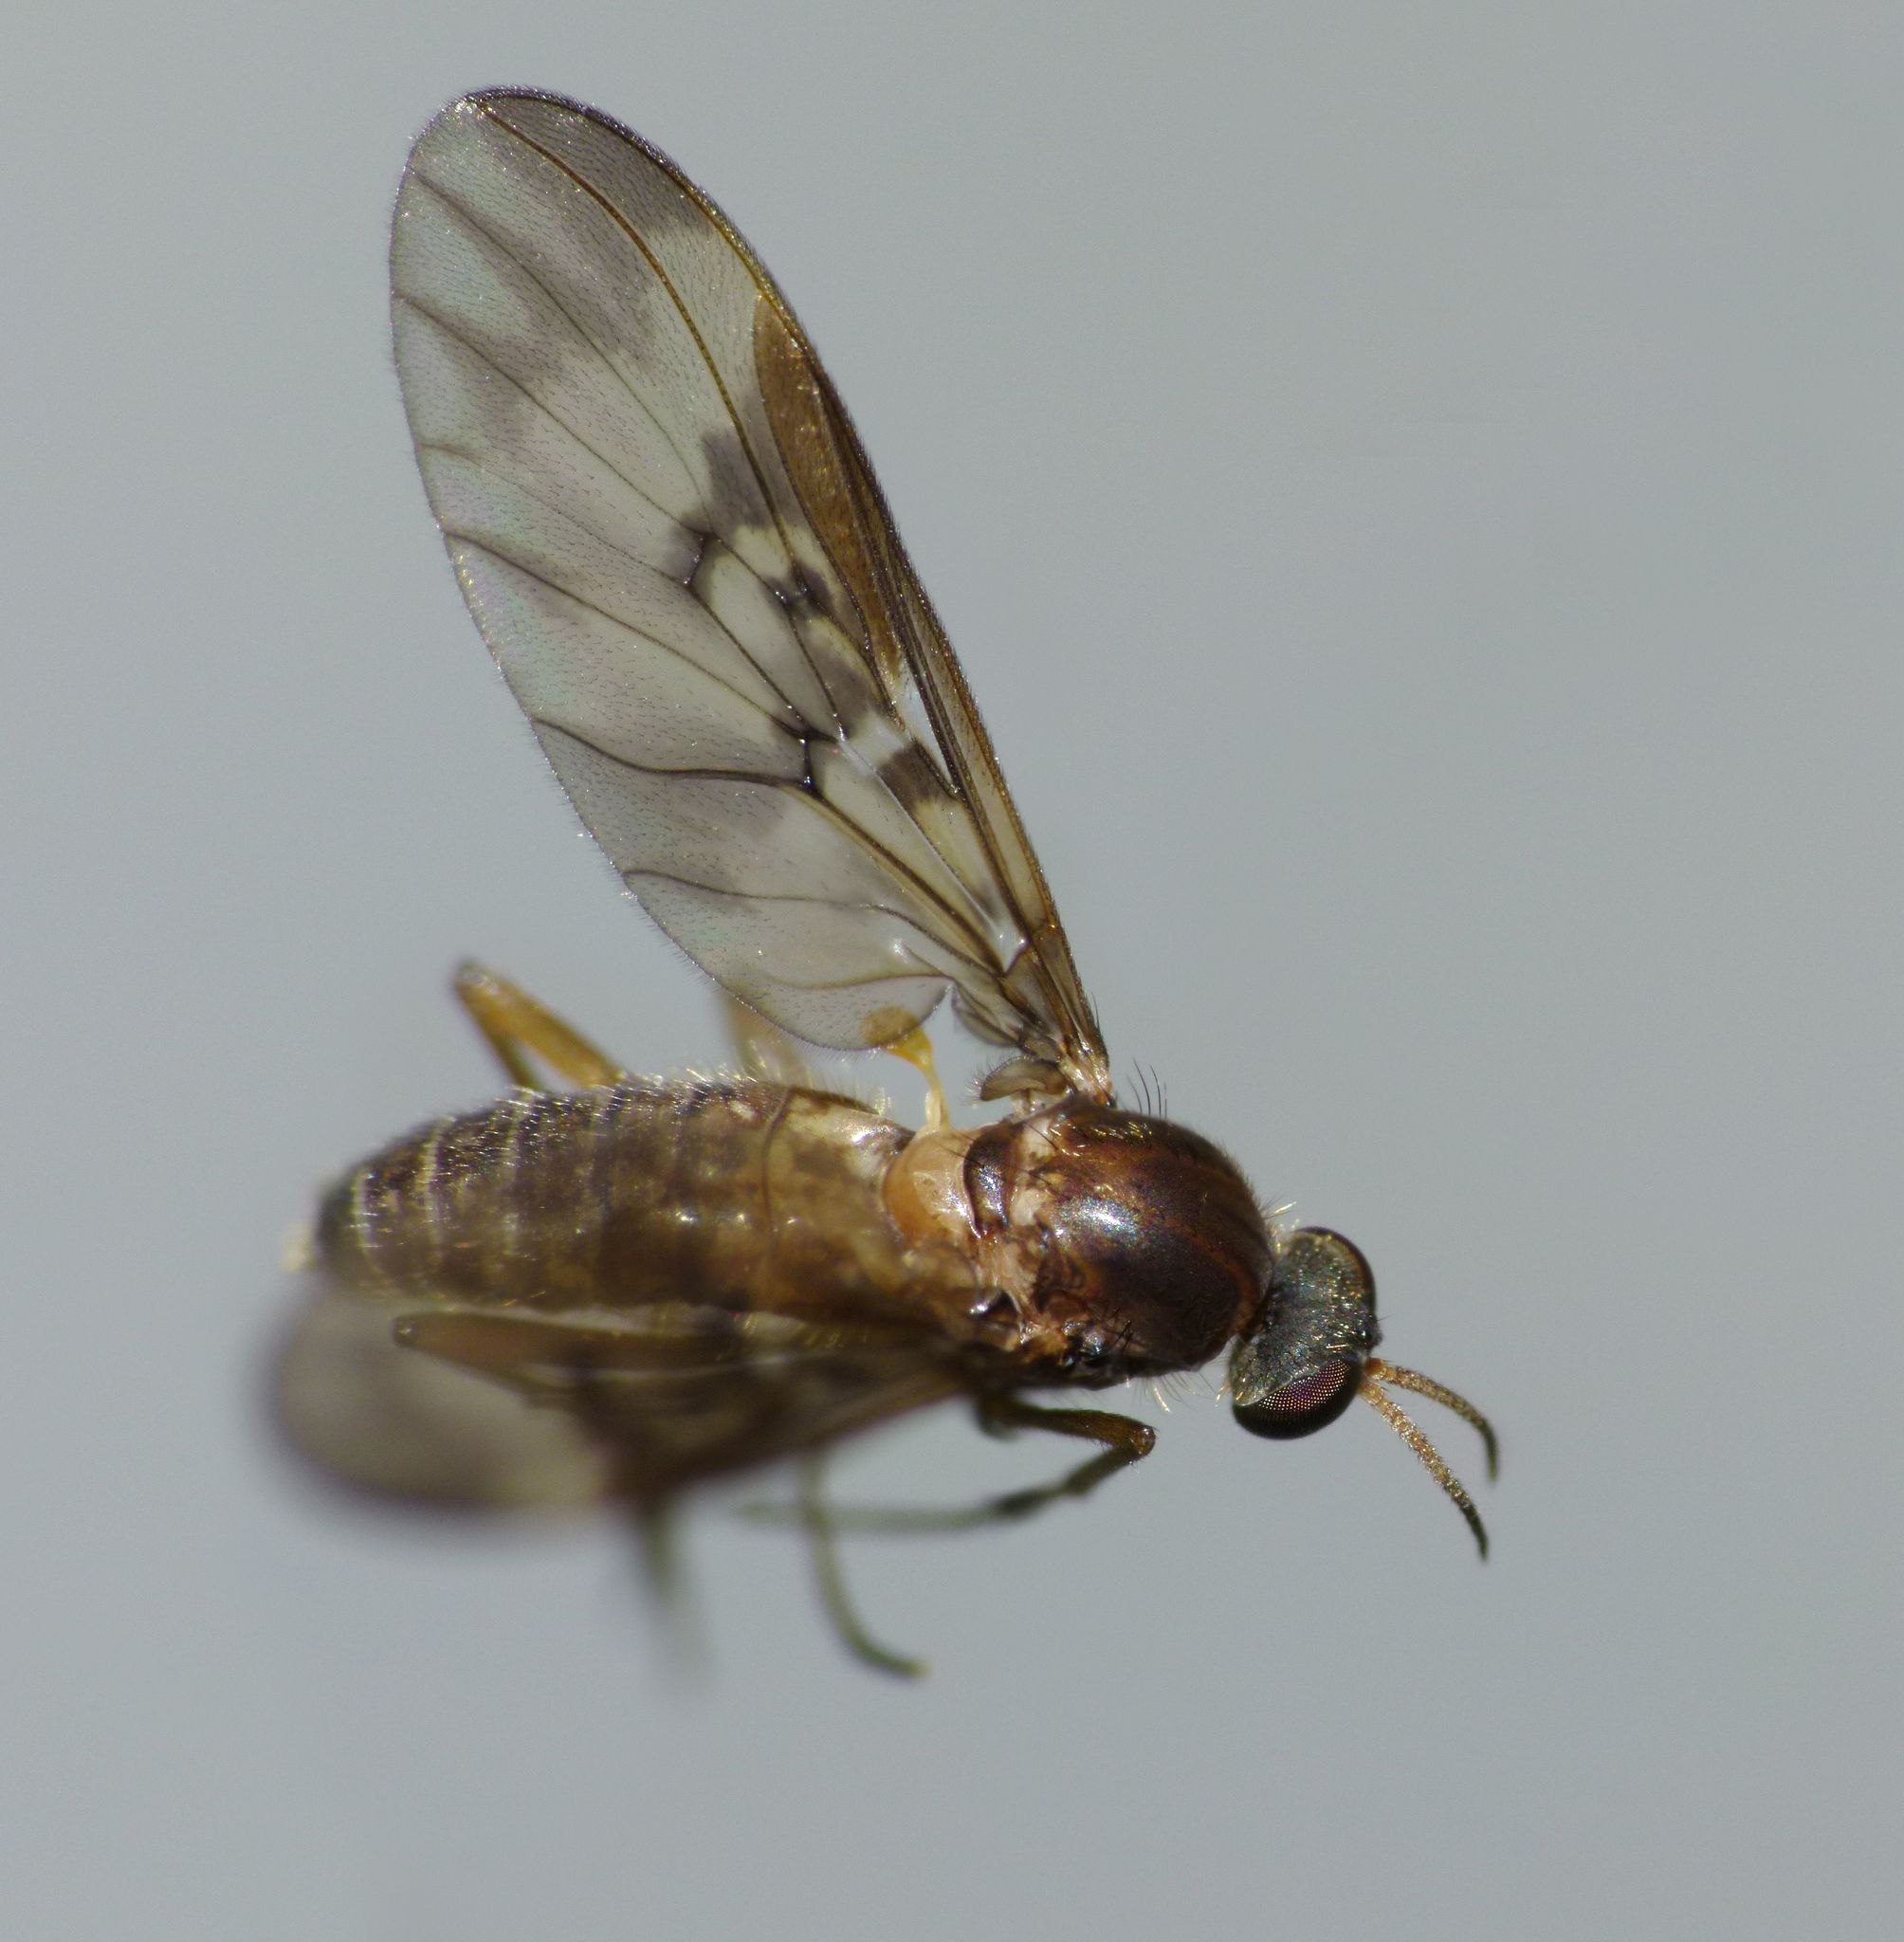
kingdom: Animalia
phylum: Arthropoda
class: Insecta
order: Diptera
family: Anisopodidae
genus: Sylvicola
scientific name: Sylvicola neozelandicus
